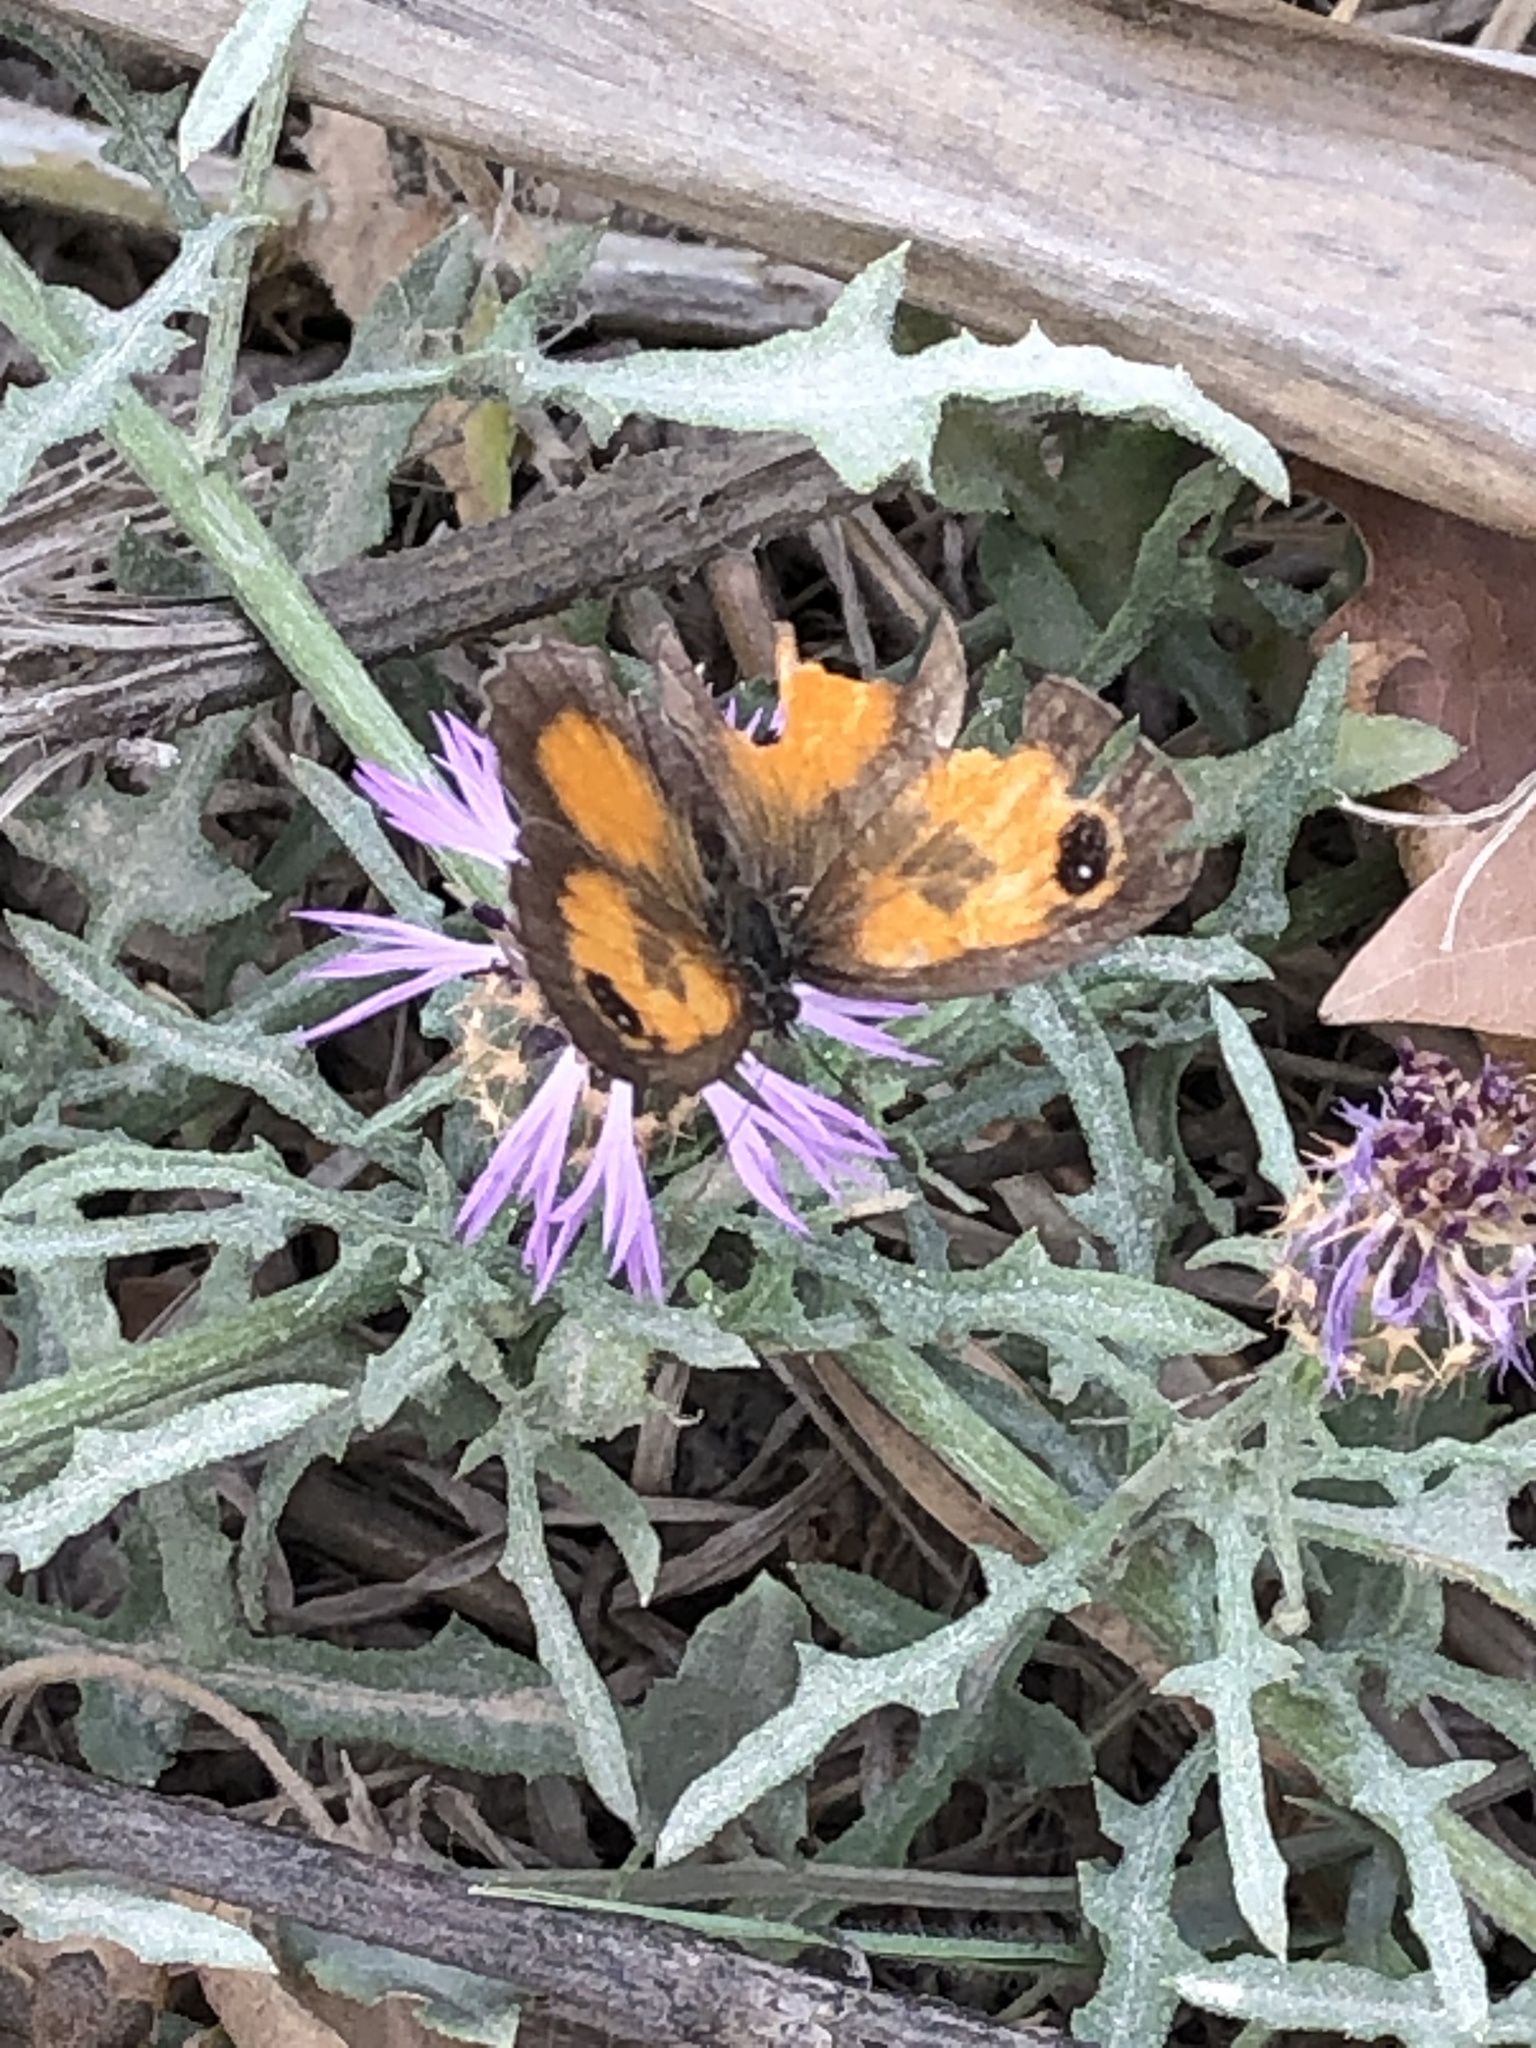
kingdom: Animalia
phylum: Arthropoda
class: Insecta
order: Lepidoptera
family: Nymphalidae
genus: Pyronia
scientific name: Pyronia tithonus
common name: Gatekeeper
